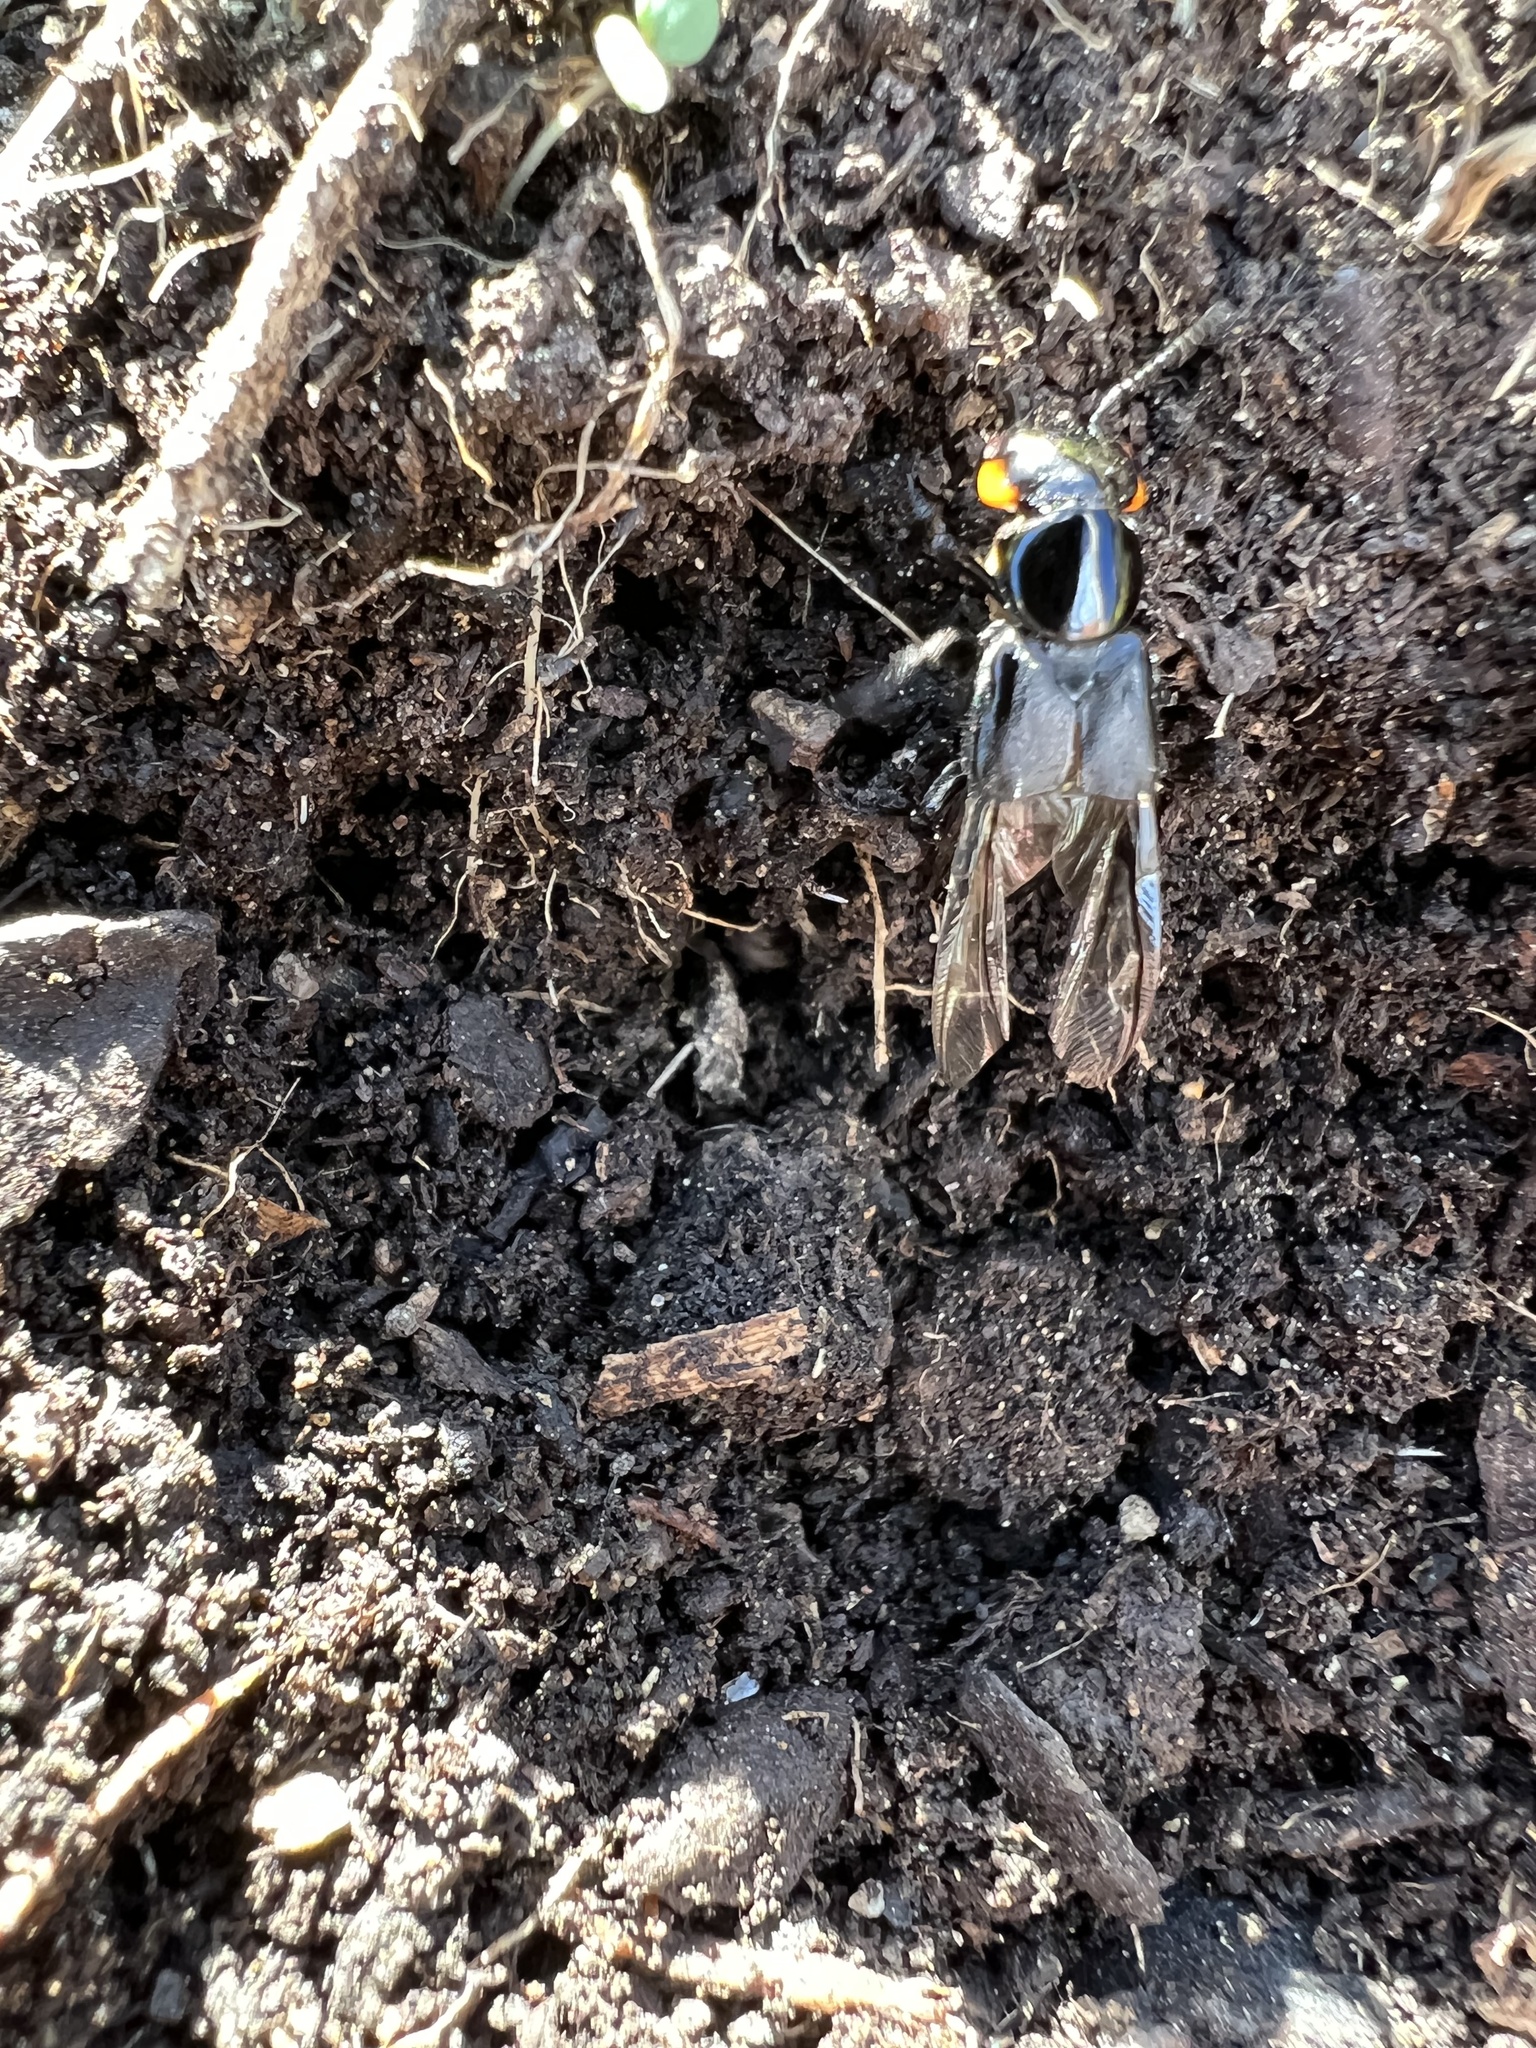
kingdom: Animalia
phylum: Arthropoda
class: Insecta
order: Coleoptera
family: Staphylinidae
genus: Creophilus
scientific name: Creophilus oculatus
